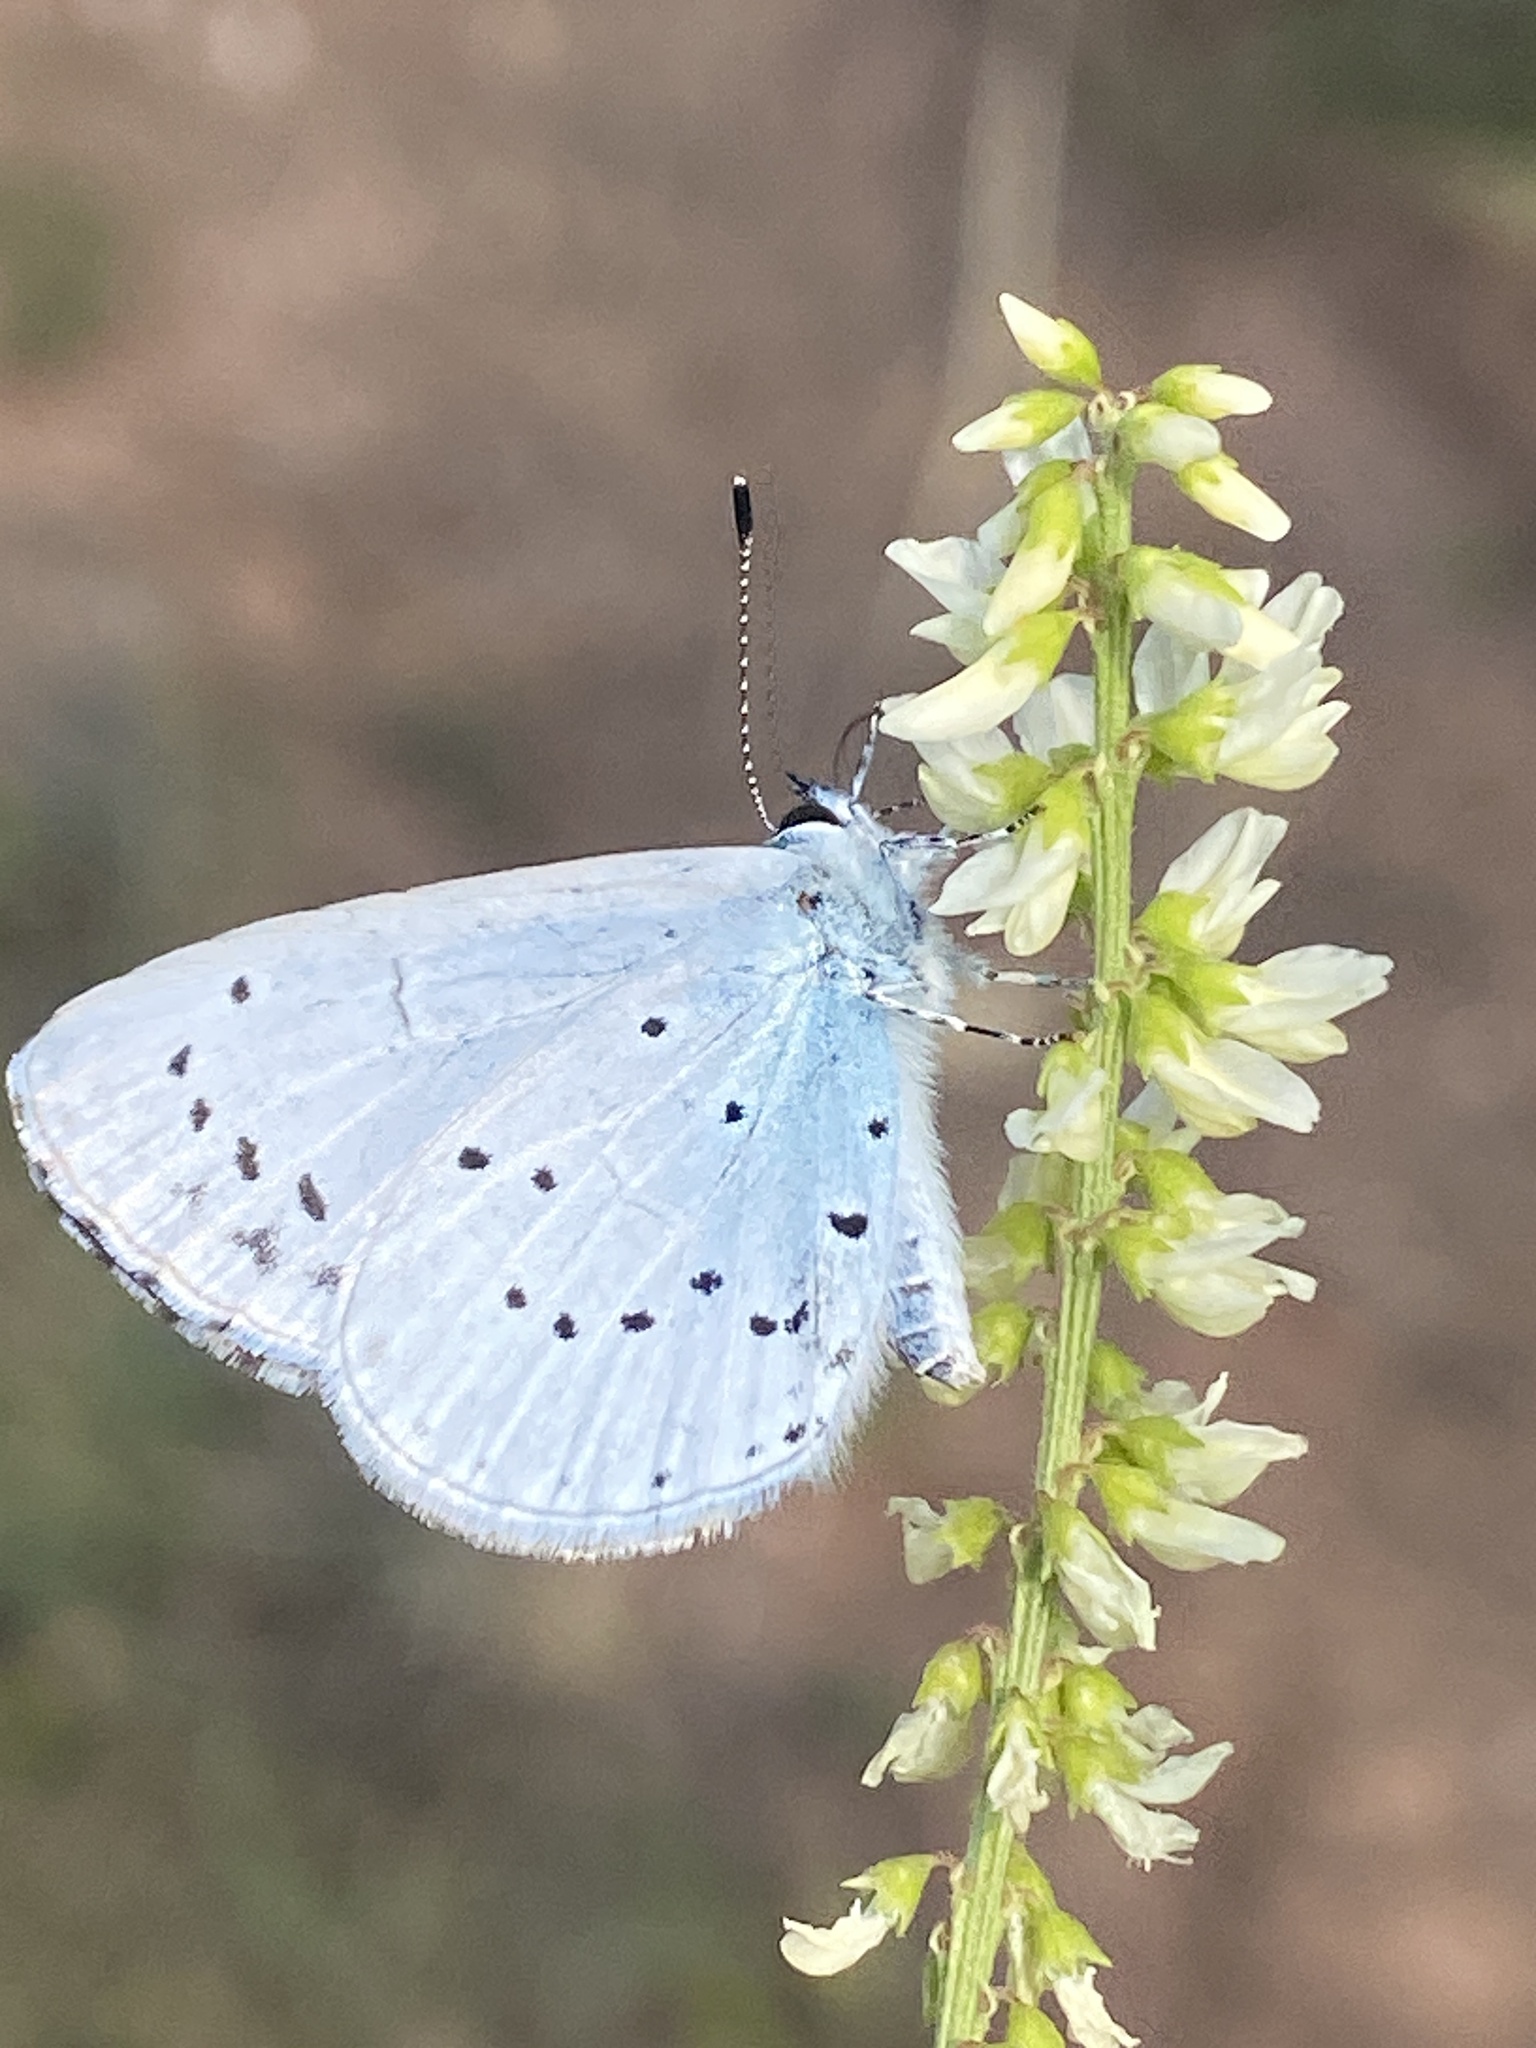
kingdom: Animalia
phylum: Arthropoda
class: Insecta
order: Lepidoptera
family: Lycaenidae
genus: Celastrina
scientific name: Celastrina argiolus
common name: Holly blue
